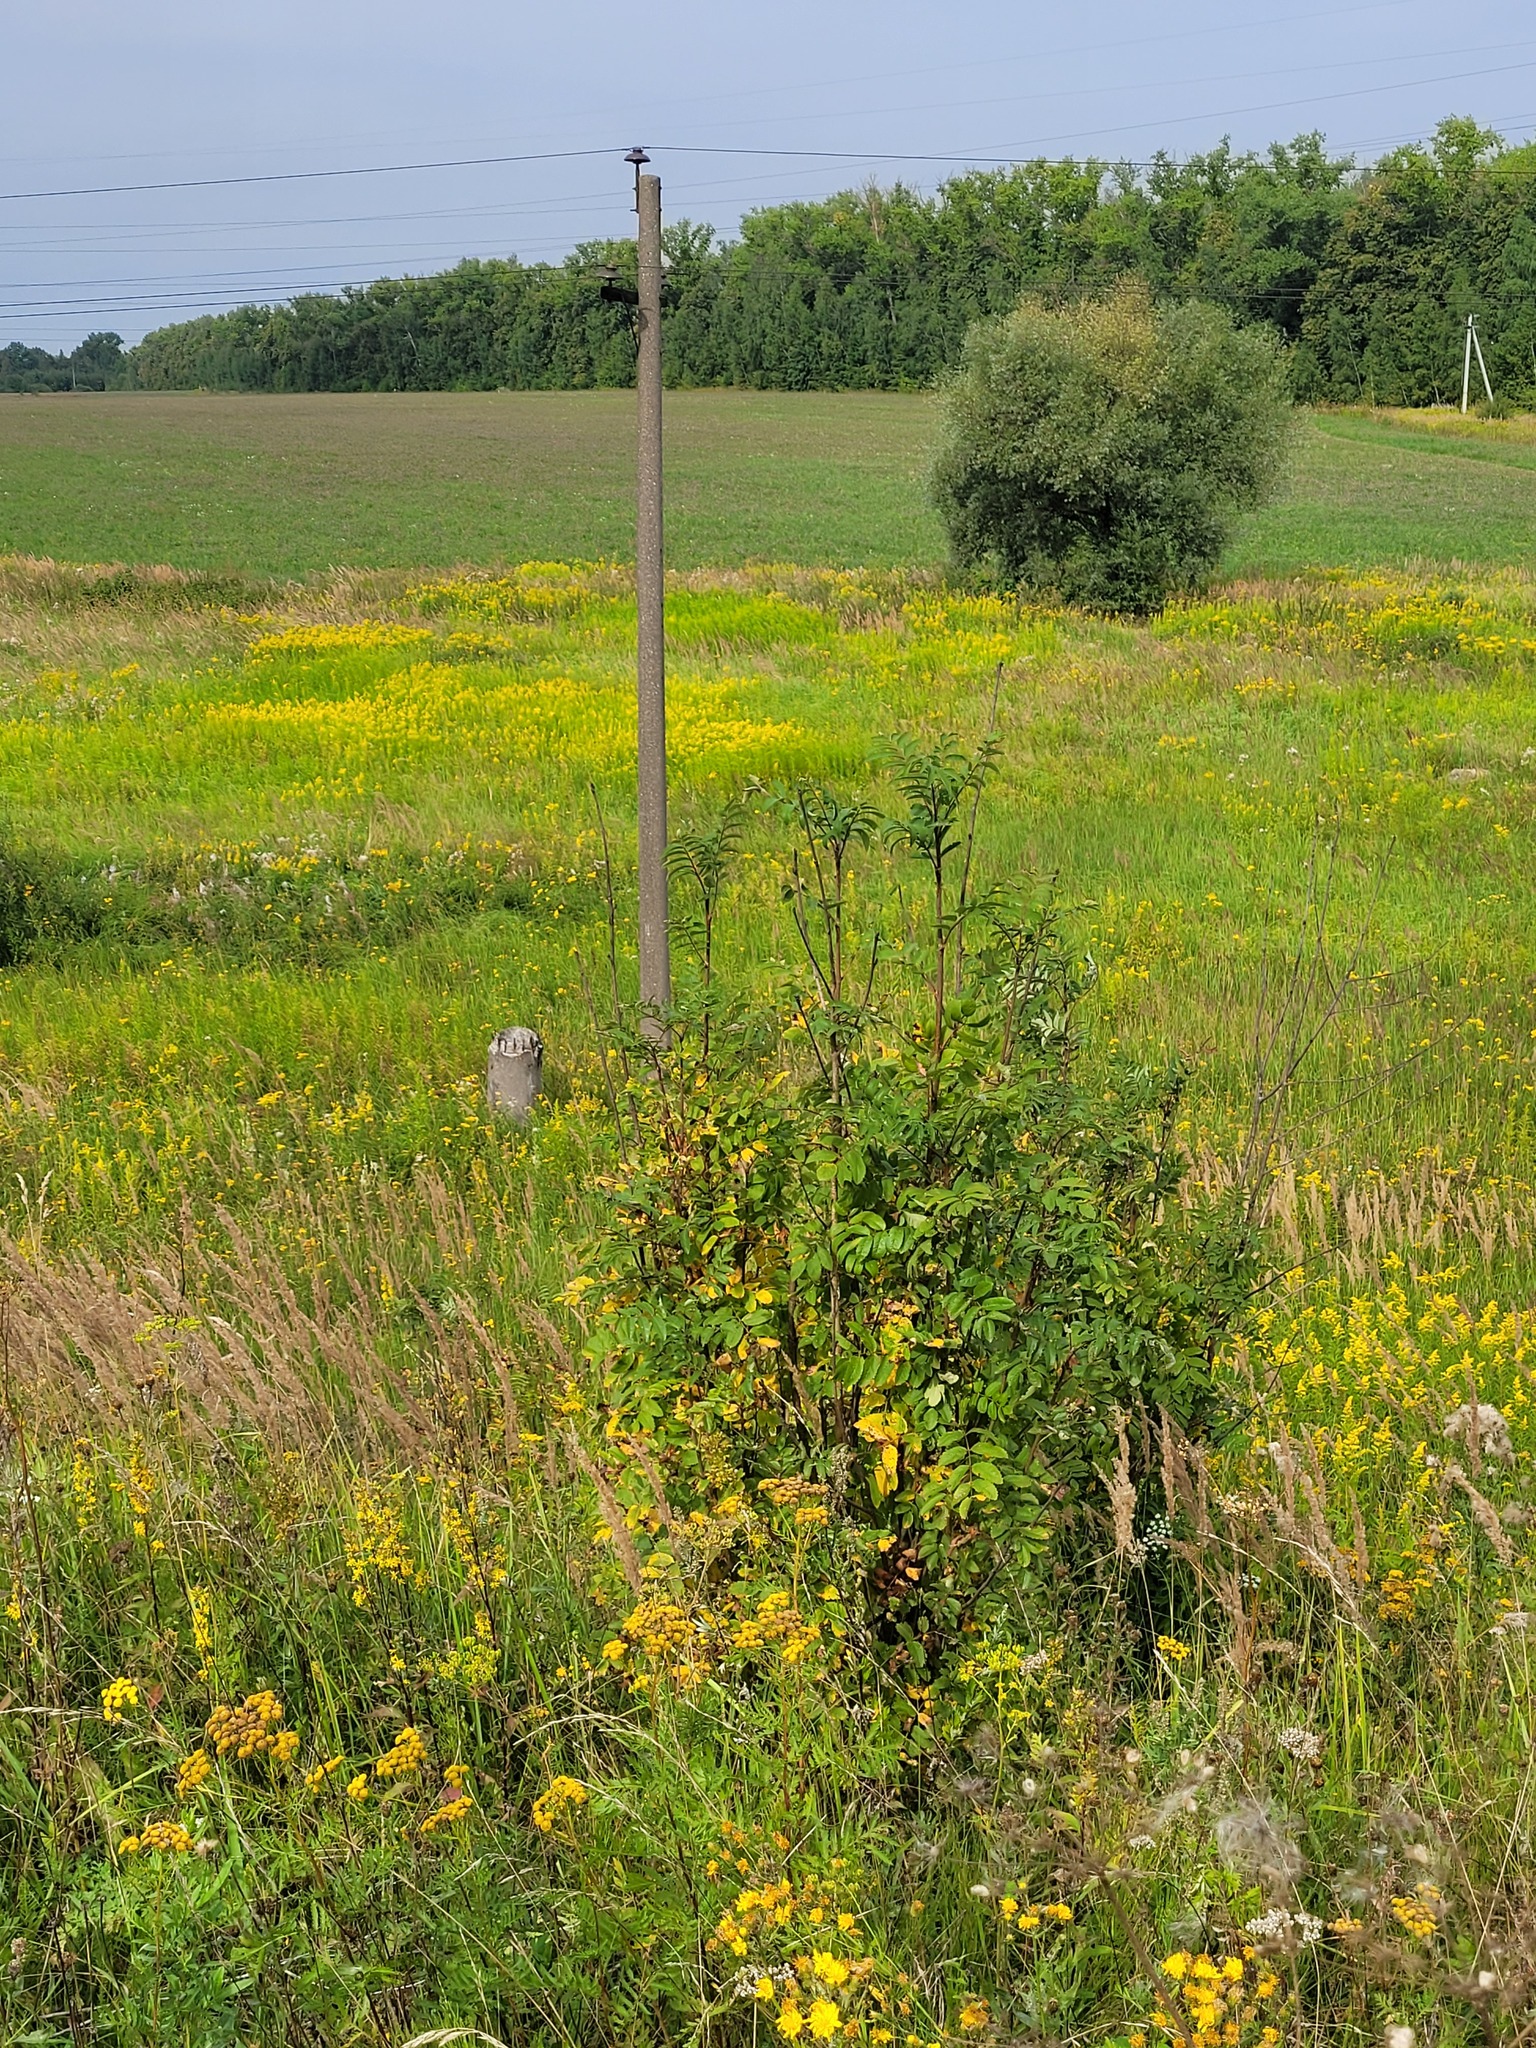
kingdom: Plantae
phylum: Tracheophyta
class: Magnoliopsida
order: Rosales
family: Rosaceae
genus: Sorbus
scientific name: Sorbus aucuparia
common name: Rowan
